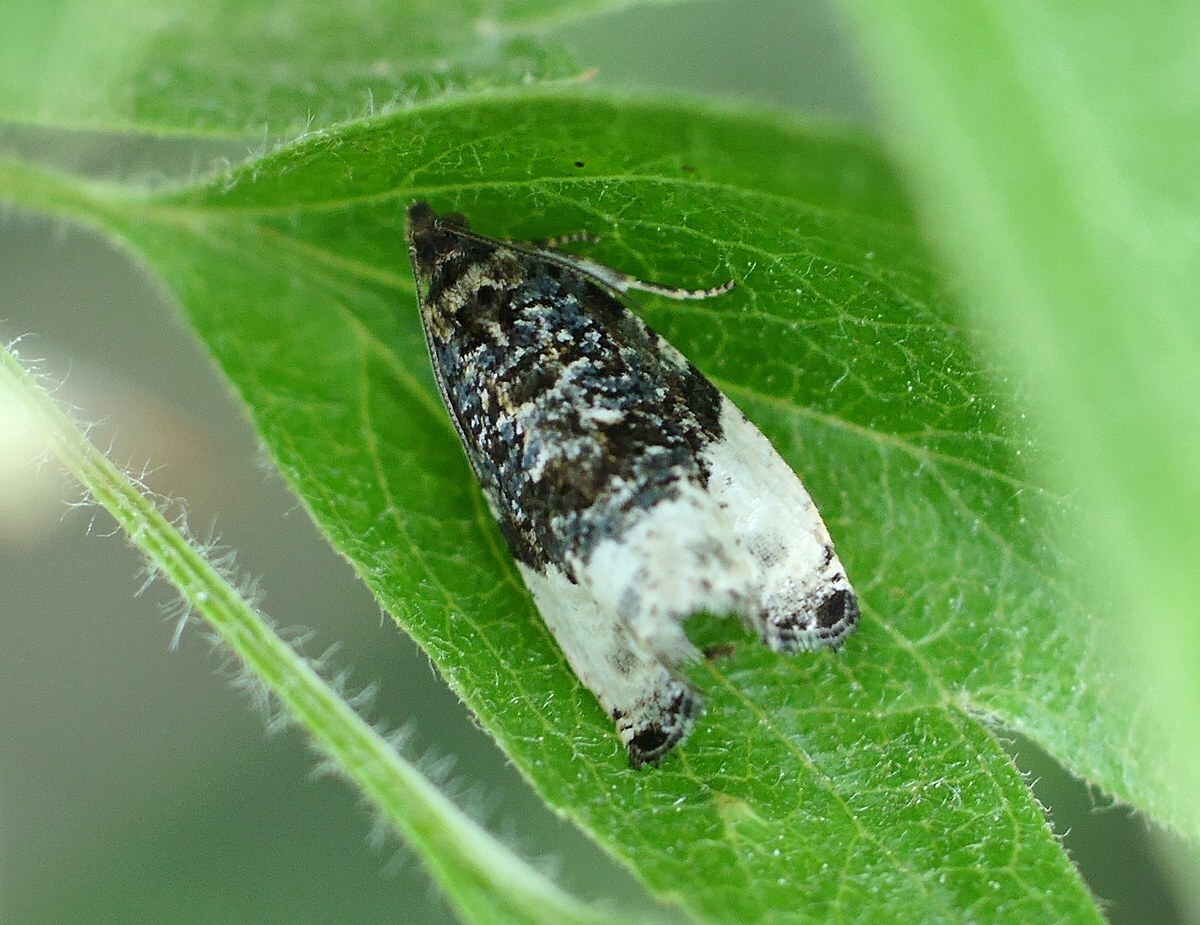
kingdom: Animalia
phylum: Arthropoda
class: Insecta
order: Lepidoptera
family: Tortricidae
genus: Hedya
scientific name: Hedya pruniana
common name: Plum tortrix
